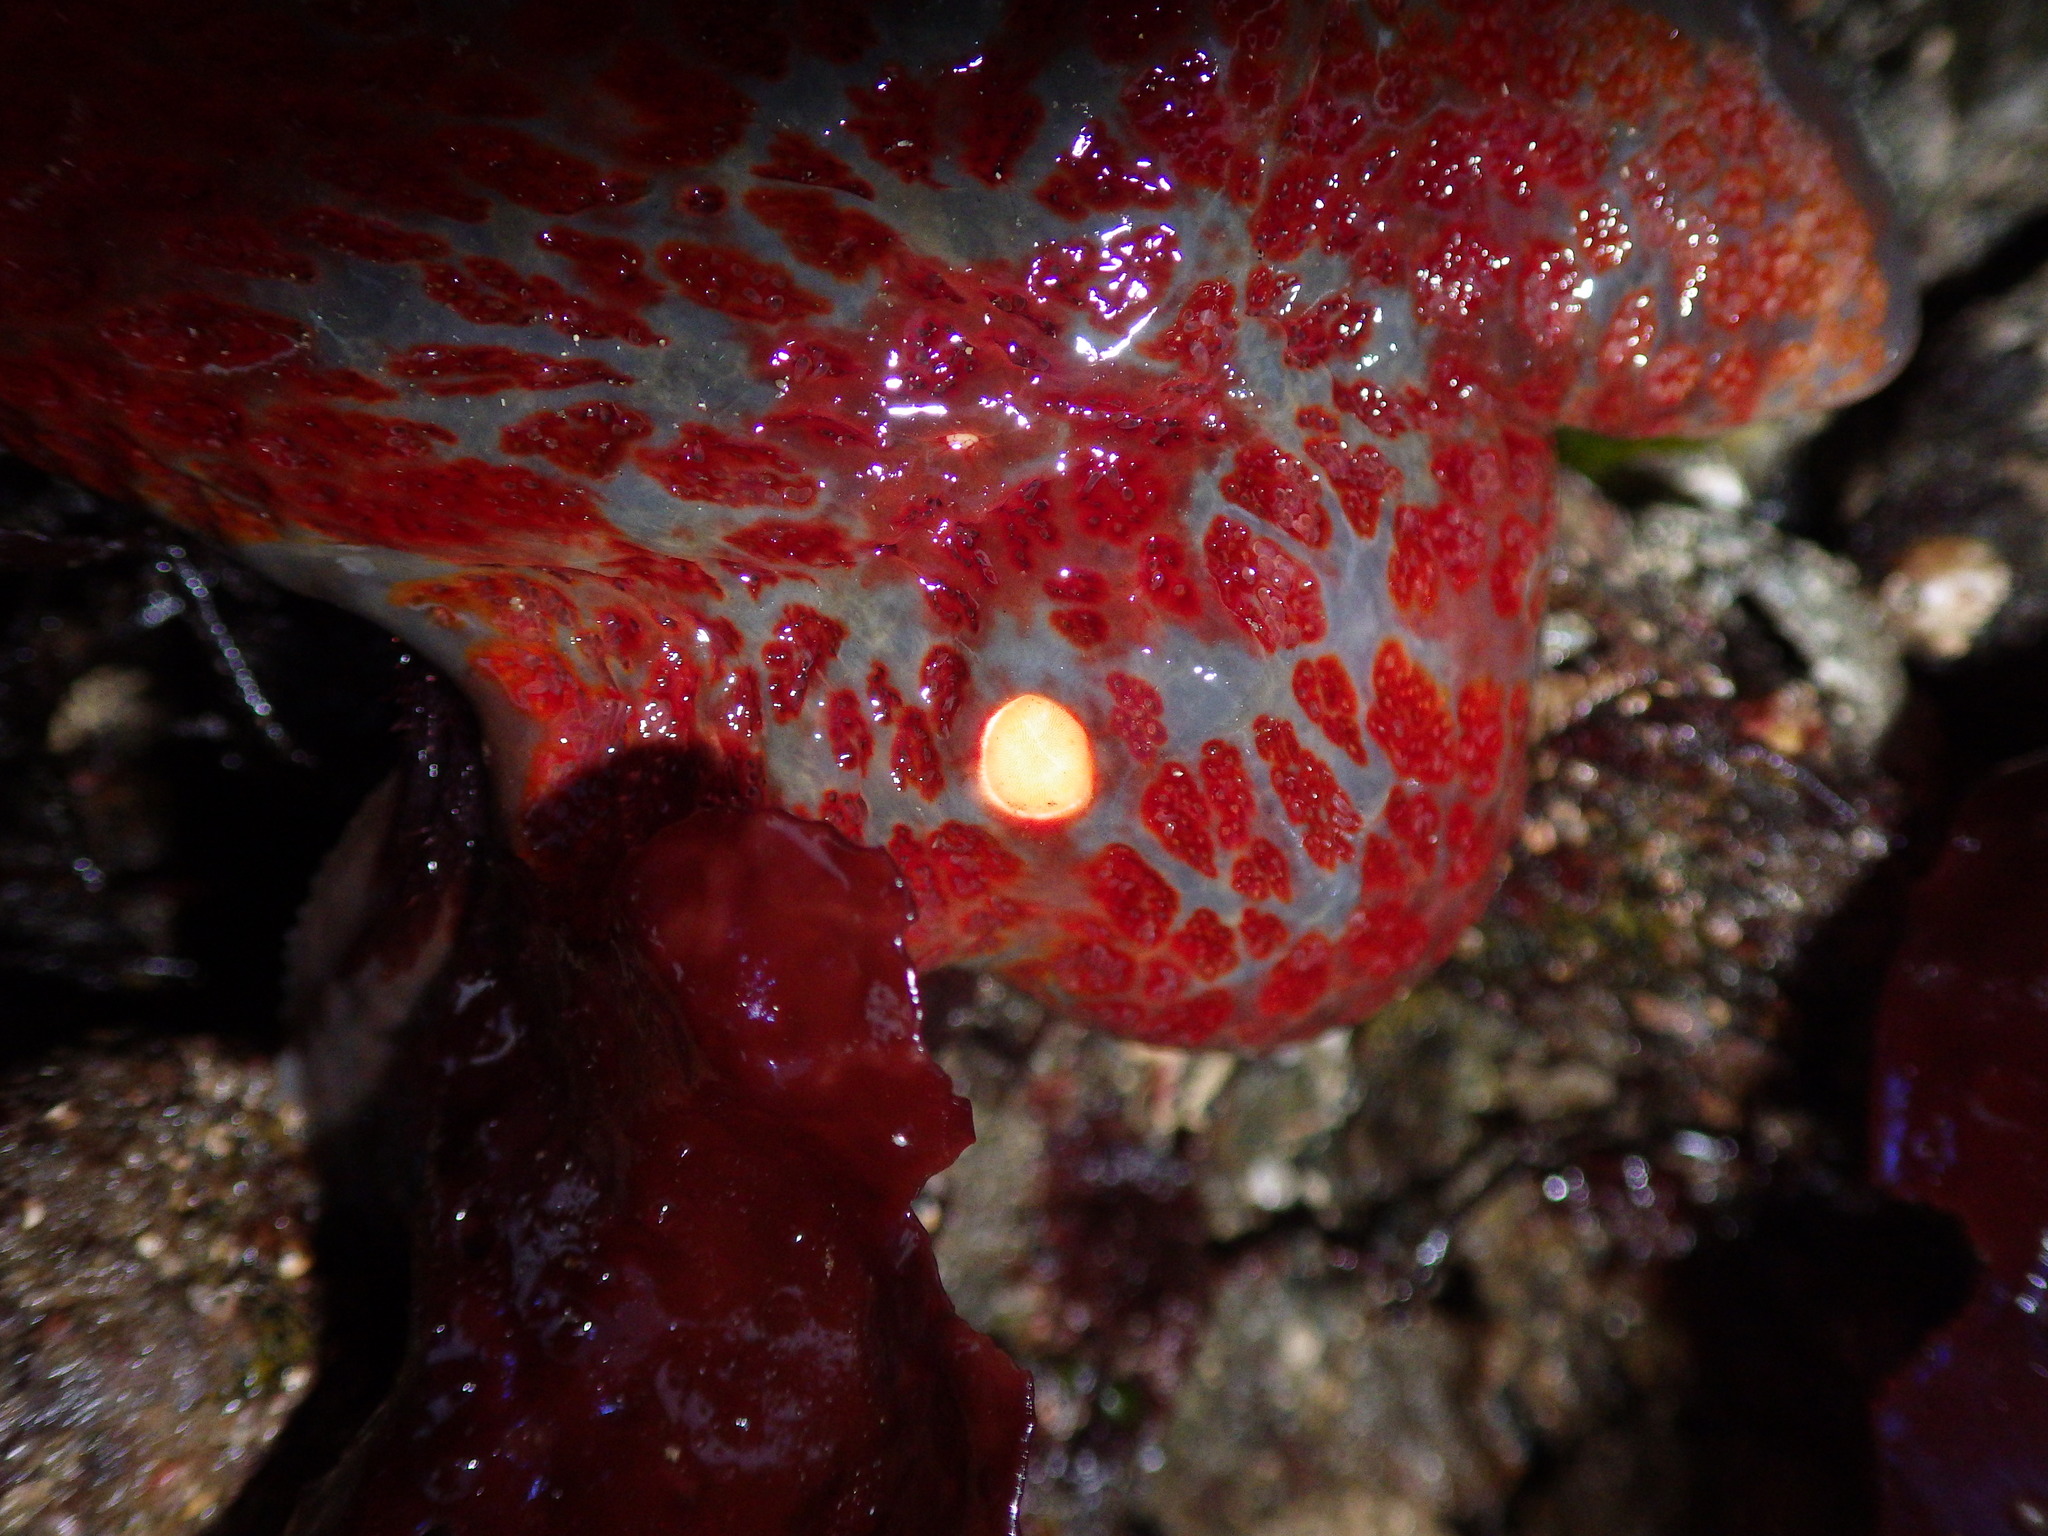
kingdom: Animalia
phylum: Echinodermata
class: Asteroidea
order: Valvatida
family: Asteropseidae
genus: Dermasterias
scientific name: Dermasterias imbricata
